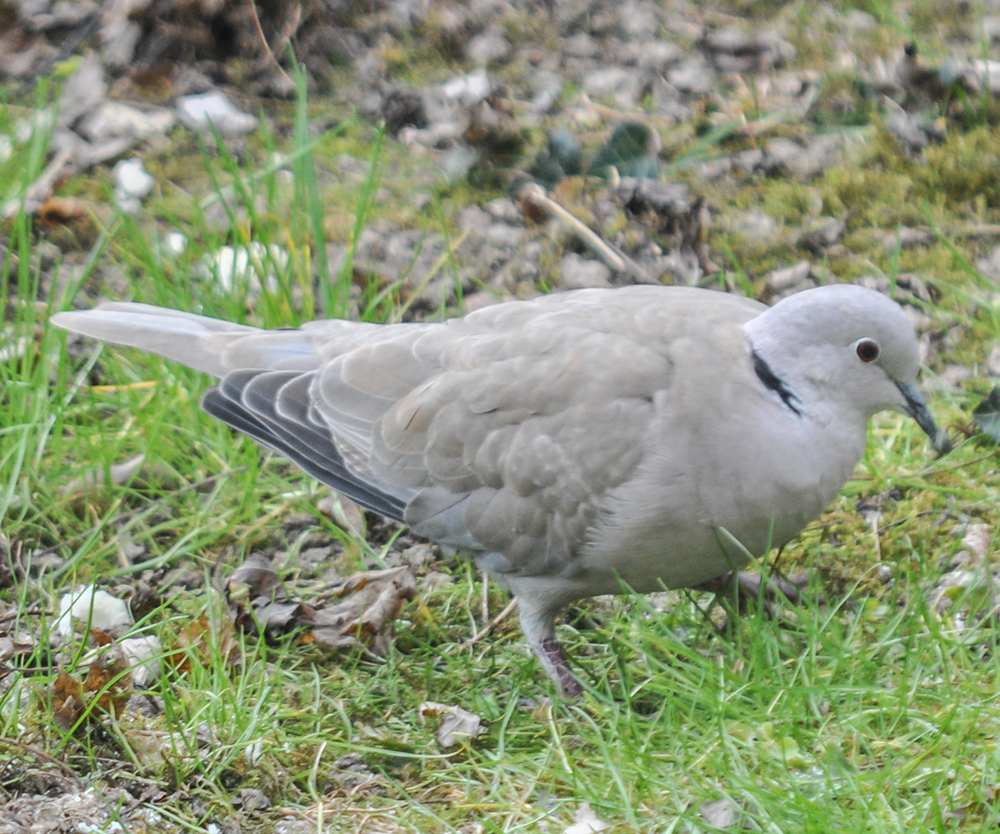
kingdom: Animalia
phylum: Chordata
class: Aves
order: Columbiformes
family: Columbidae
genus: Streptopelia
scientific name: Streptopelia decaocto
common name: Eurasian collared dove
